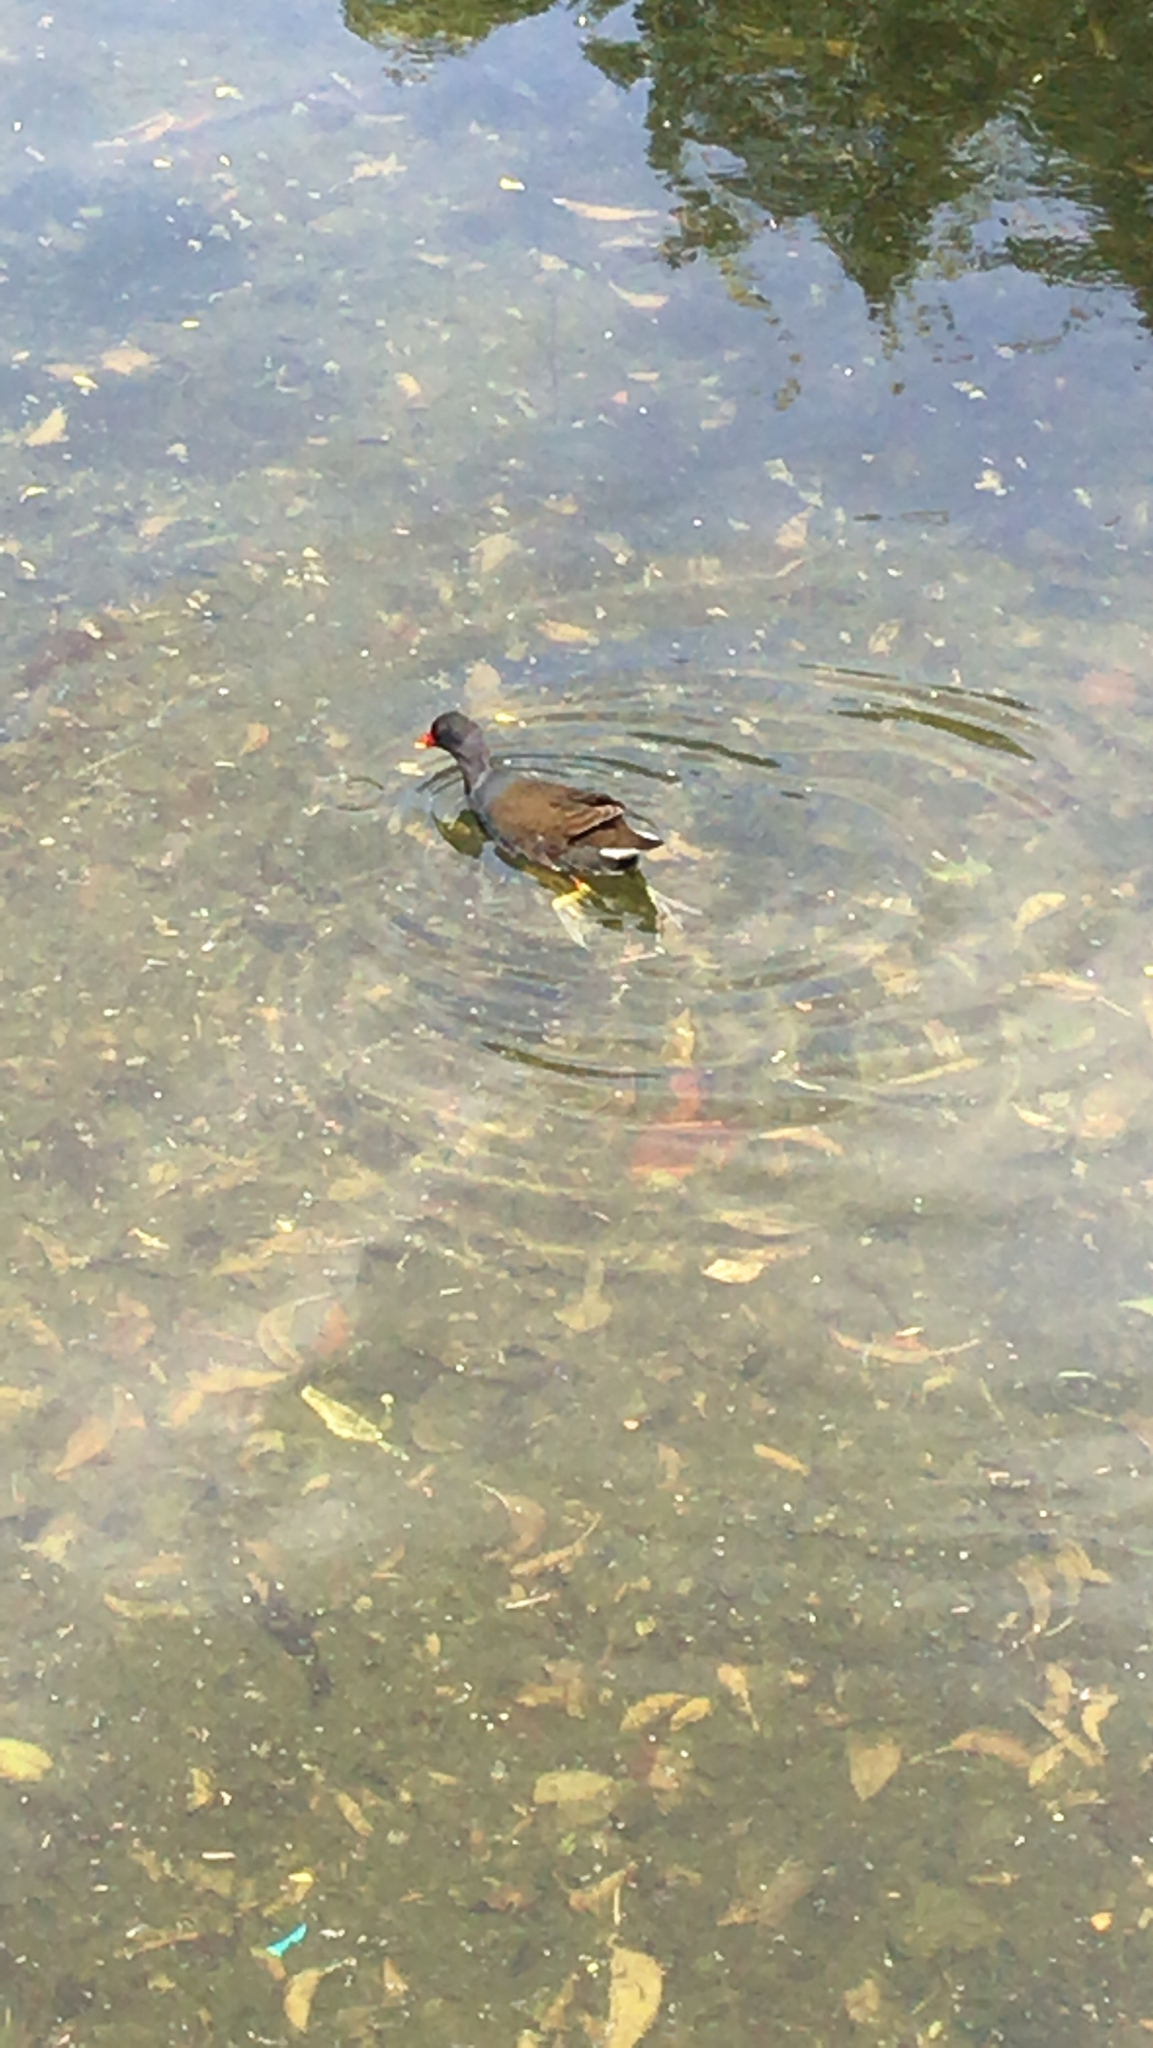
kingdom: Animalia
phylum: Chordata
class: Aves
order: Gruiformes
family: Rallidae
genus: Gallinula
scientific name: Gallinula chloropus
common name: Common moorhen
